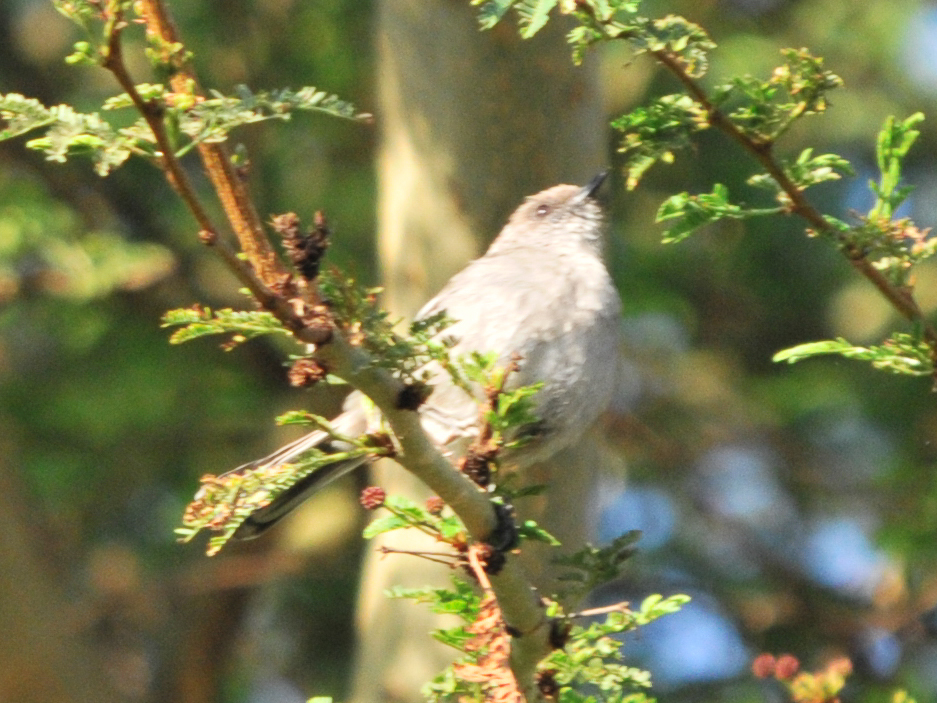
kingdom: Animalia
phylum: Chordata
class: Aves
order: Passeriformes
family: Sylviidae
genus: Sylvia
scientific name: Sylvia lugens
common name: Brown parisoma
